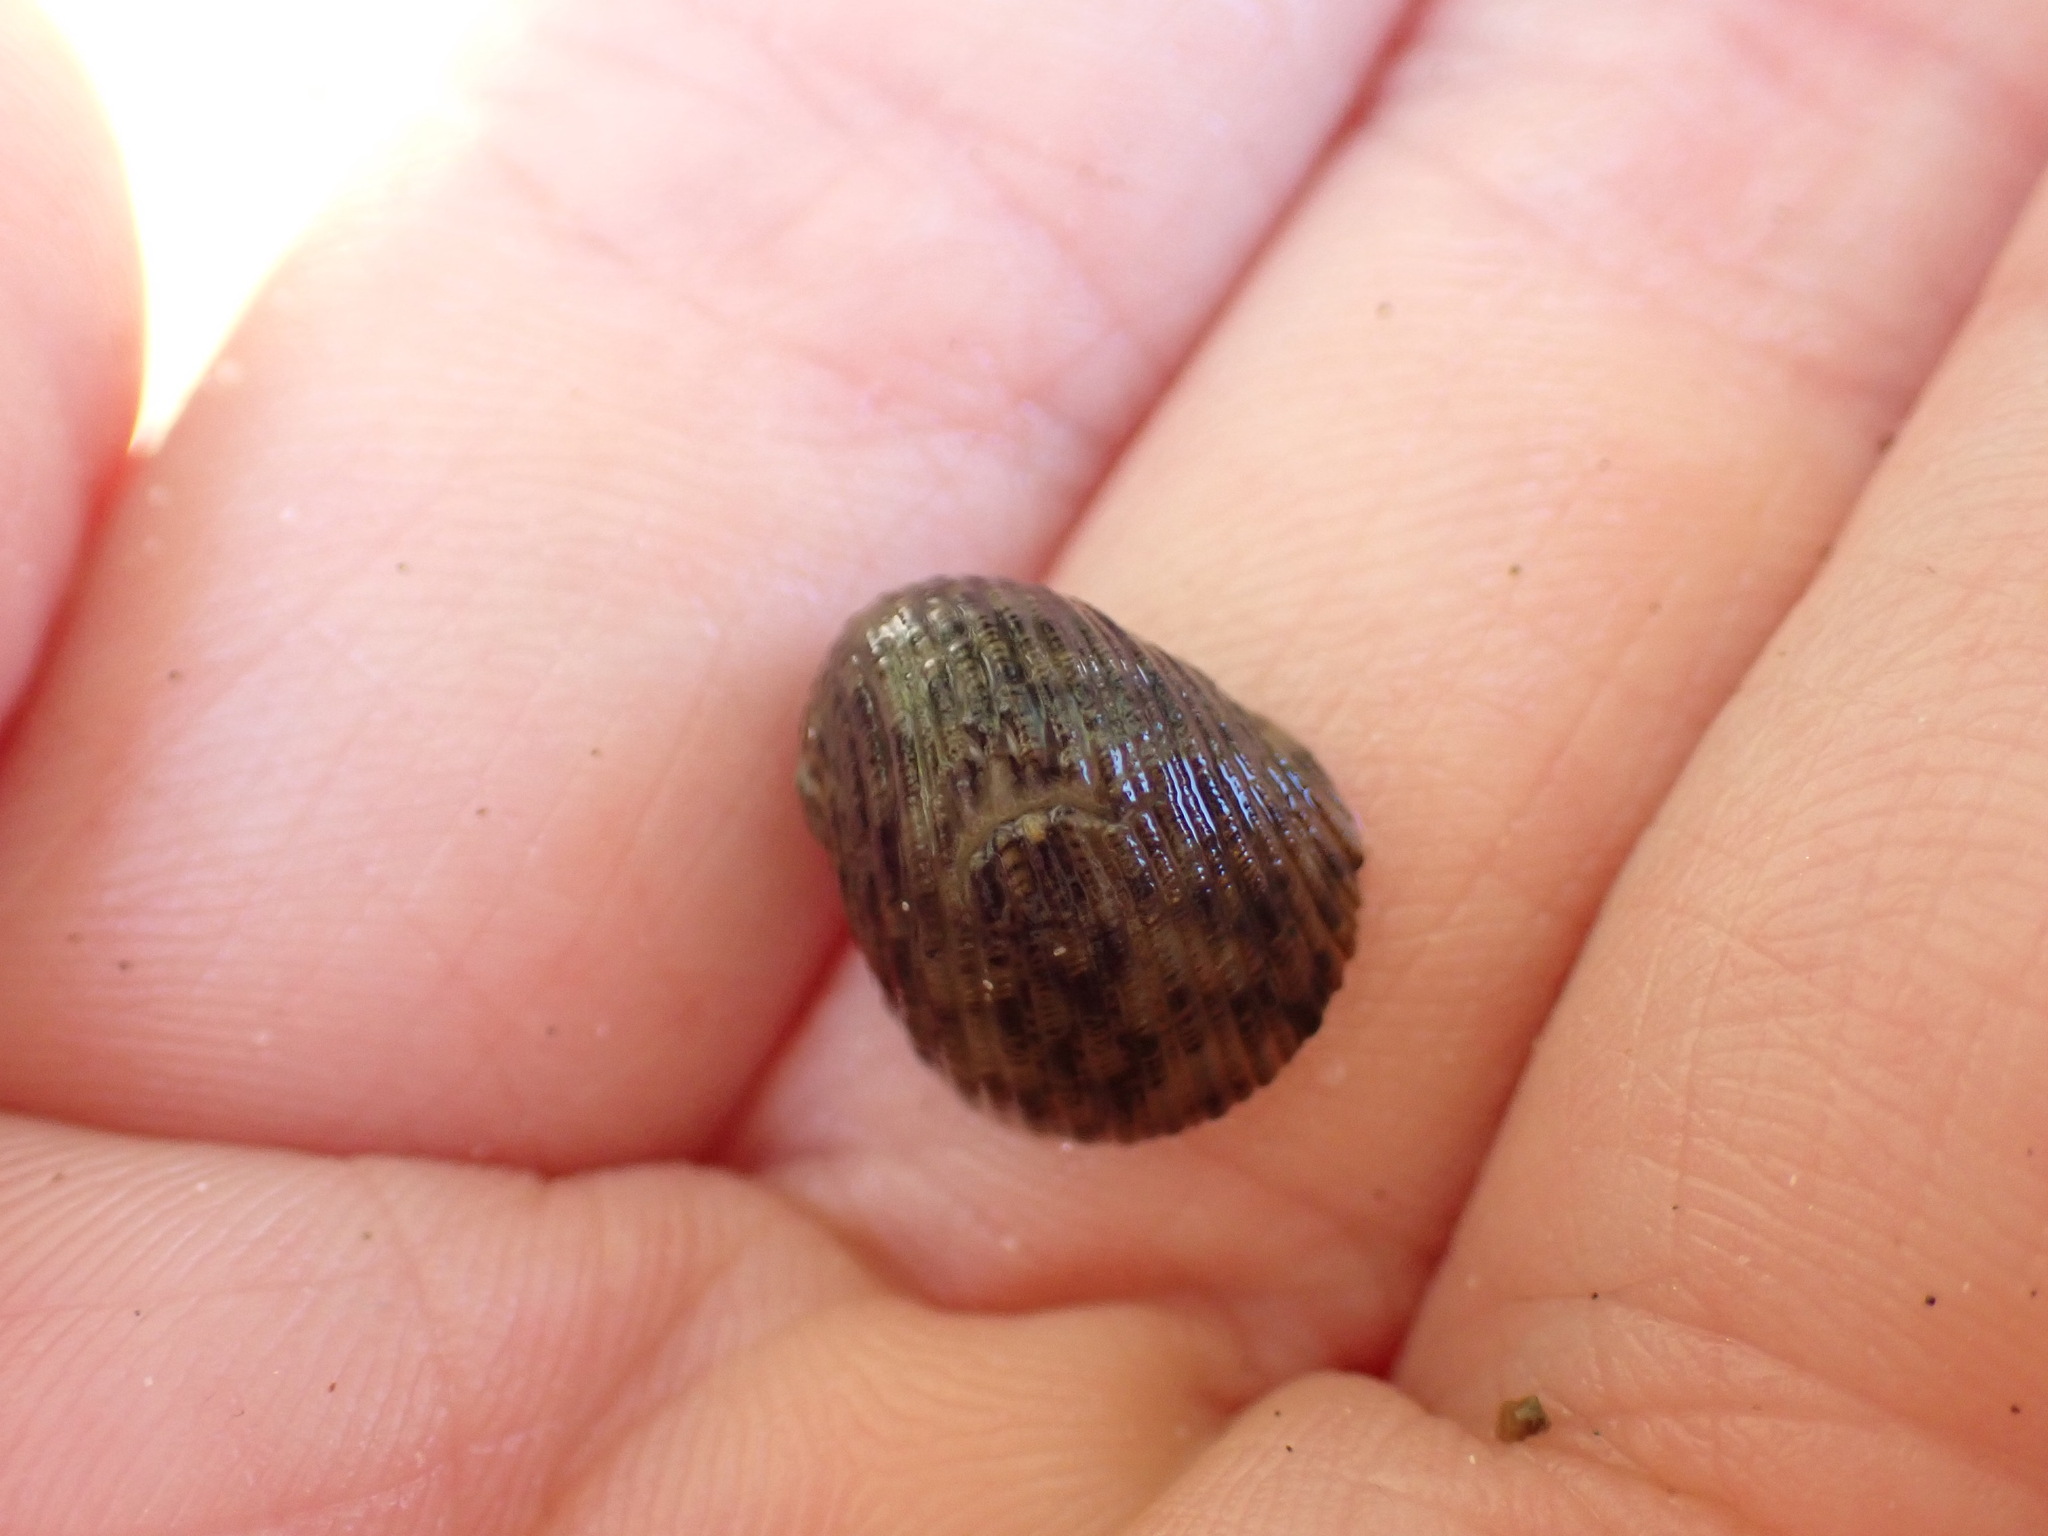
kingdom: Animalia
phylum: Mollusca
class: Gastropoda
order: Cycloneritida
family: Neritidae
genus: Nerita
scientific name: Nerita funiculata
